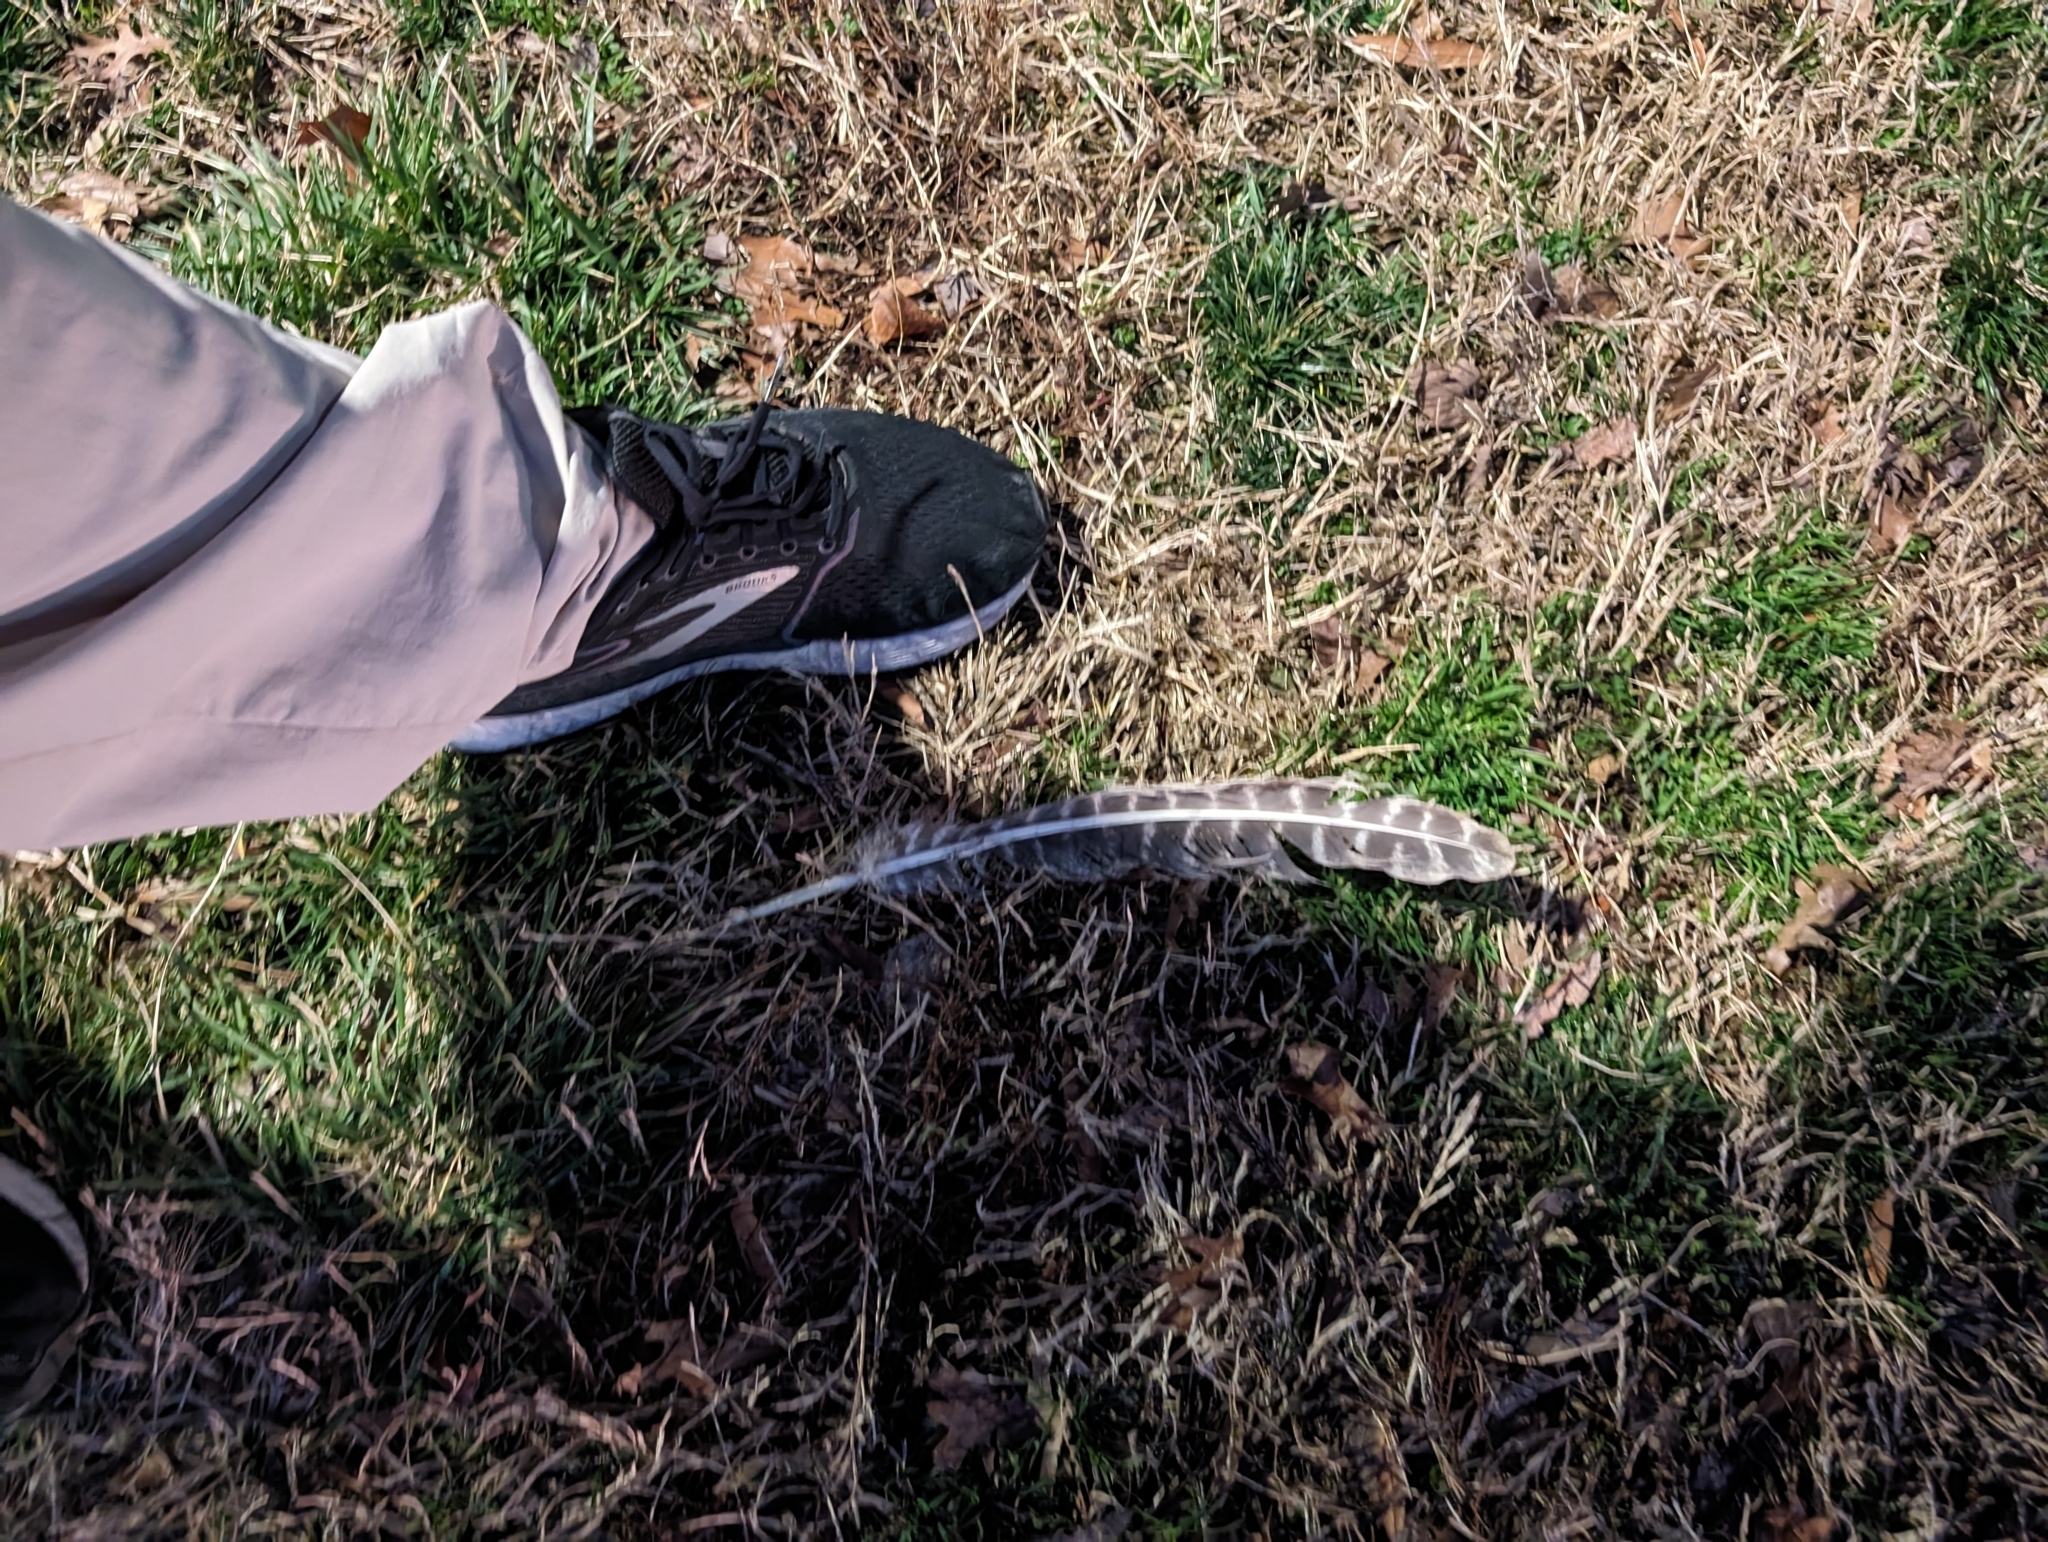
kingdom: Animalia
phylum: Chordata
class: Aves
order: Galliformes
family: Phasianidae
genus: Meleagris
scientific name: Meleagris gallopavo
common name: Wild turkey
